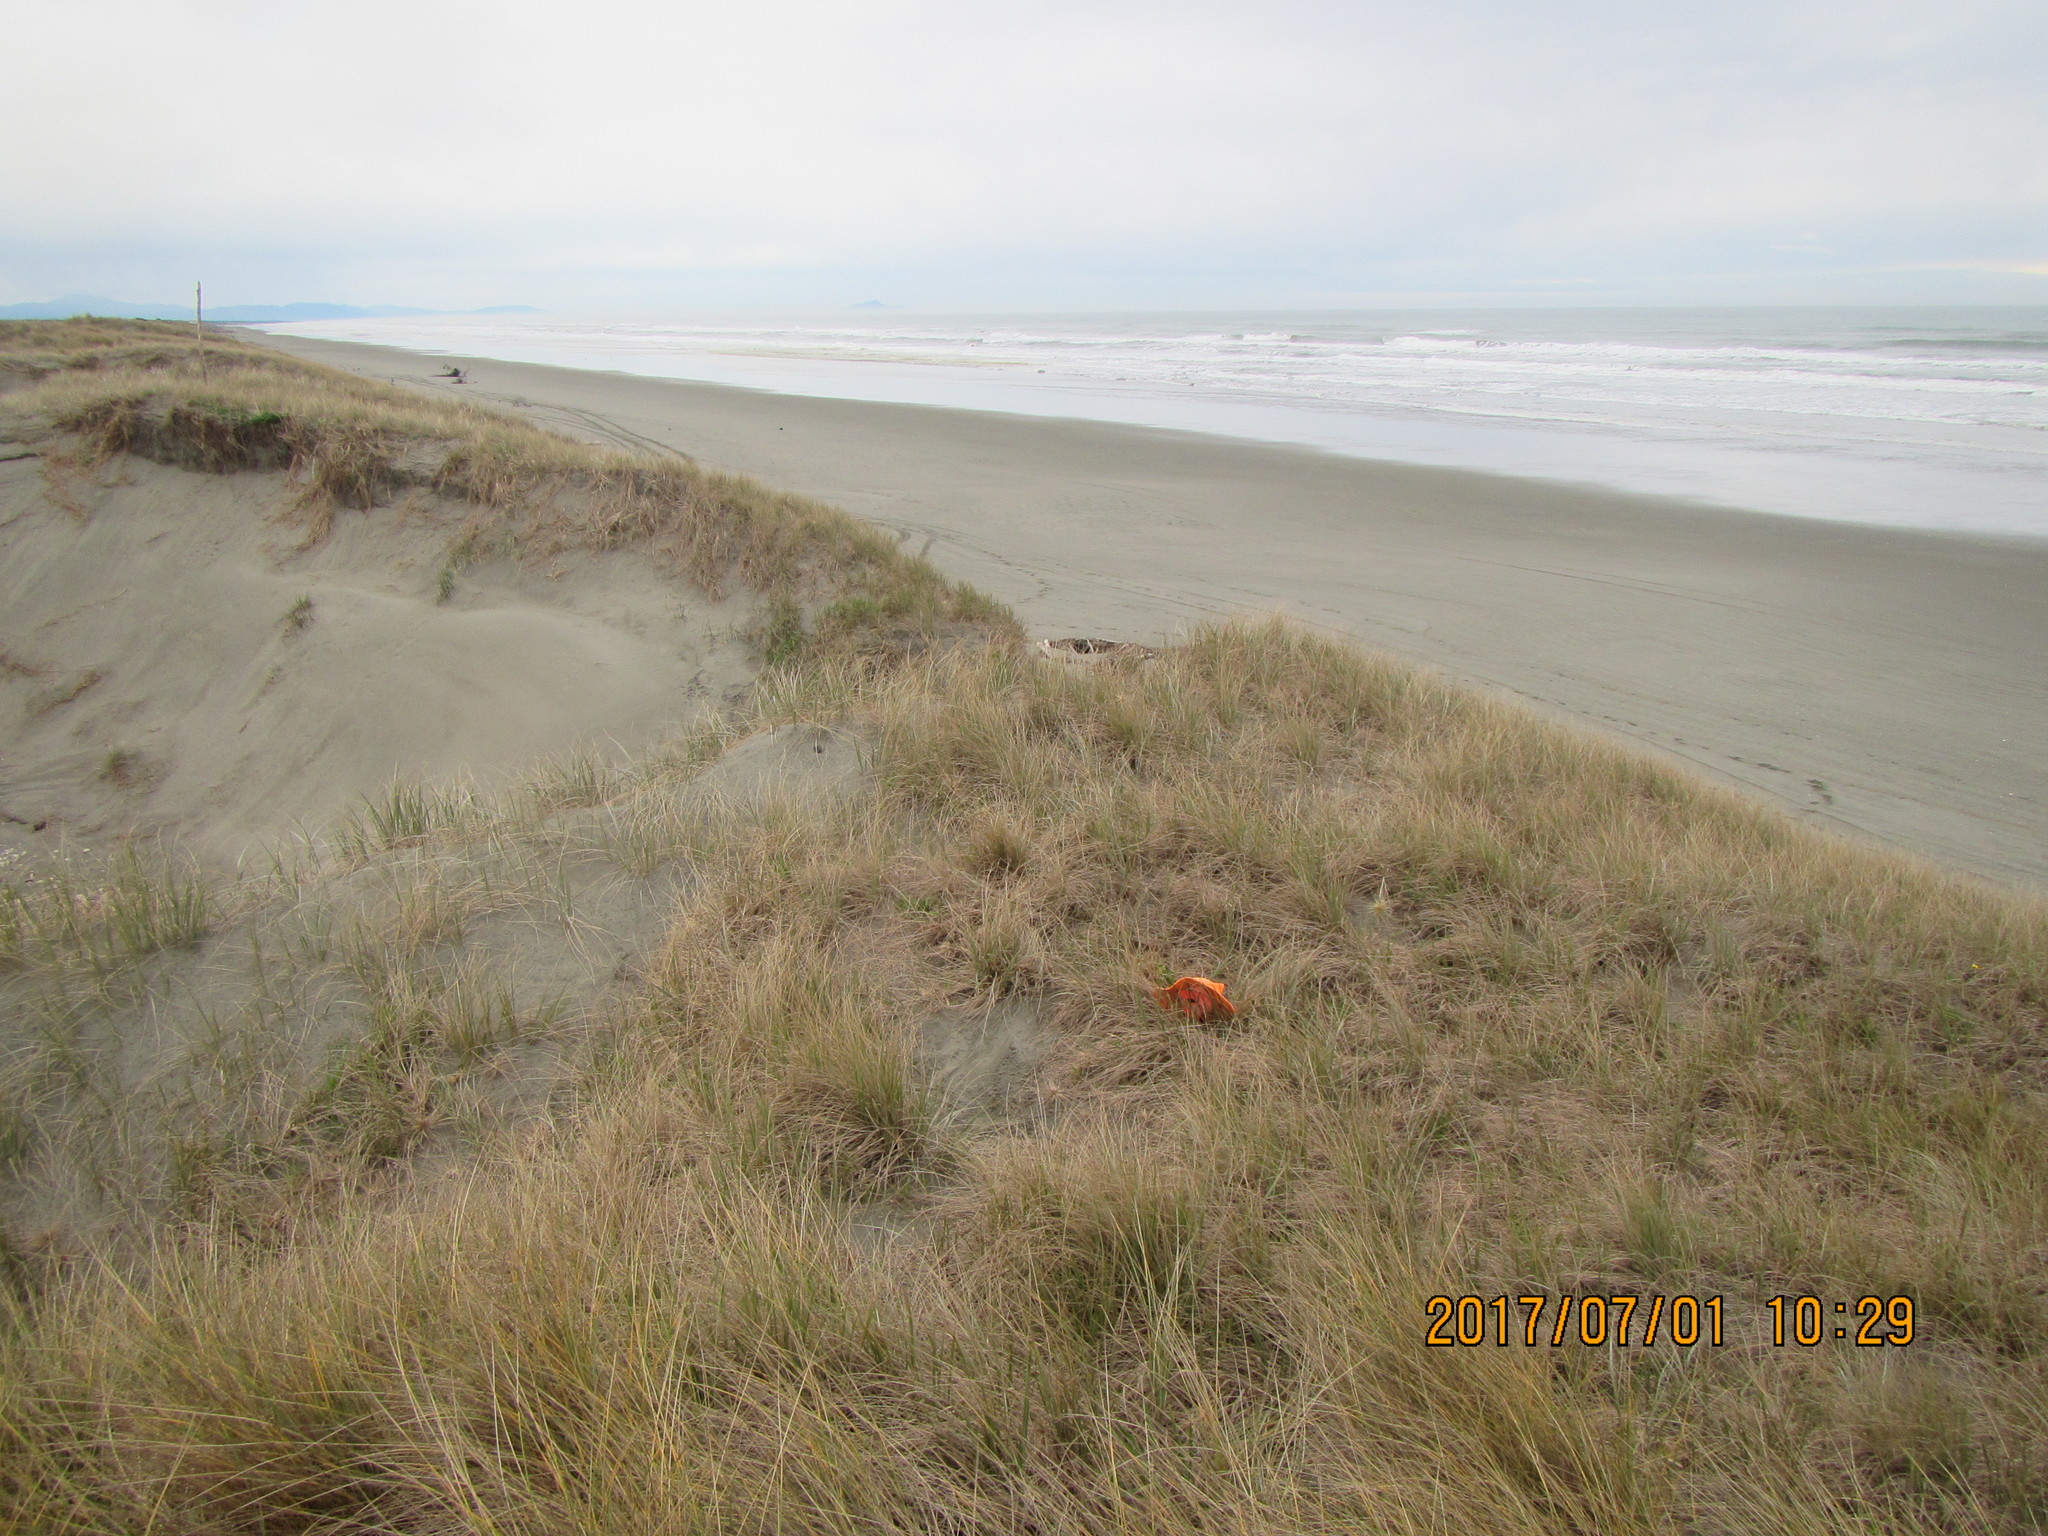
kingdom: Animalia
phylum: Arthropoda
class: Arachnida
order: Araneae
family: Gnaphosidae
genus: Anzacia
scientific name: Anzacia gemmea
